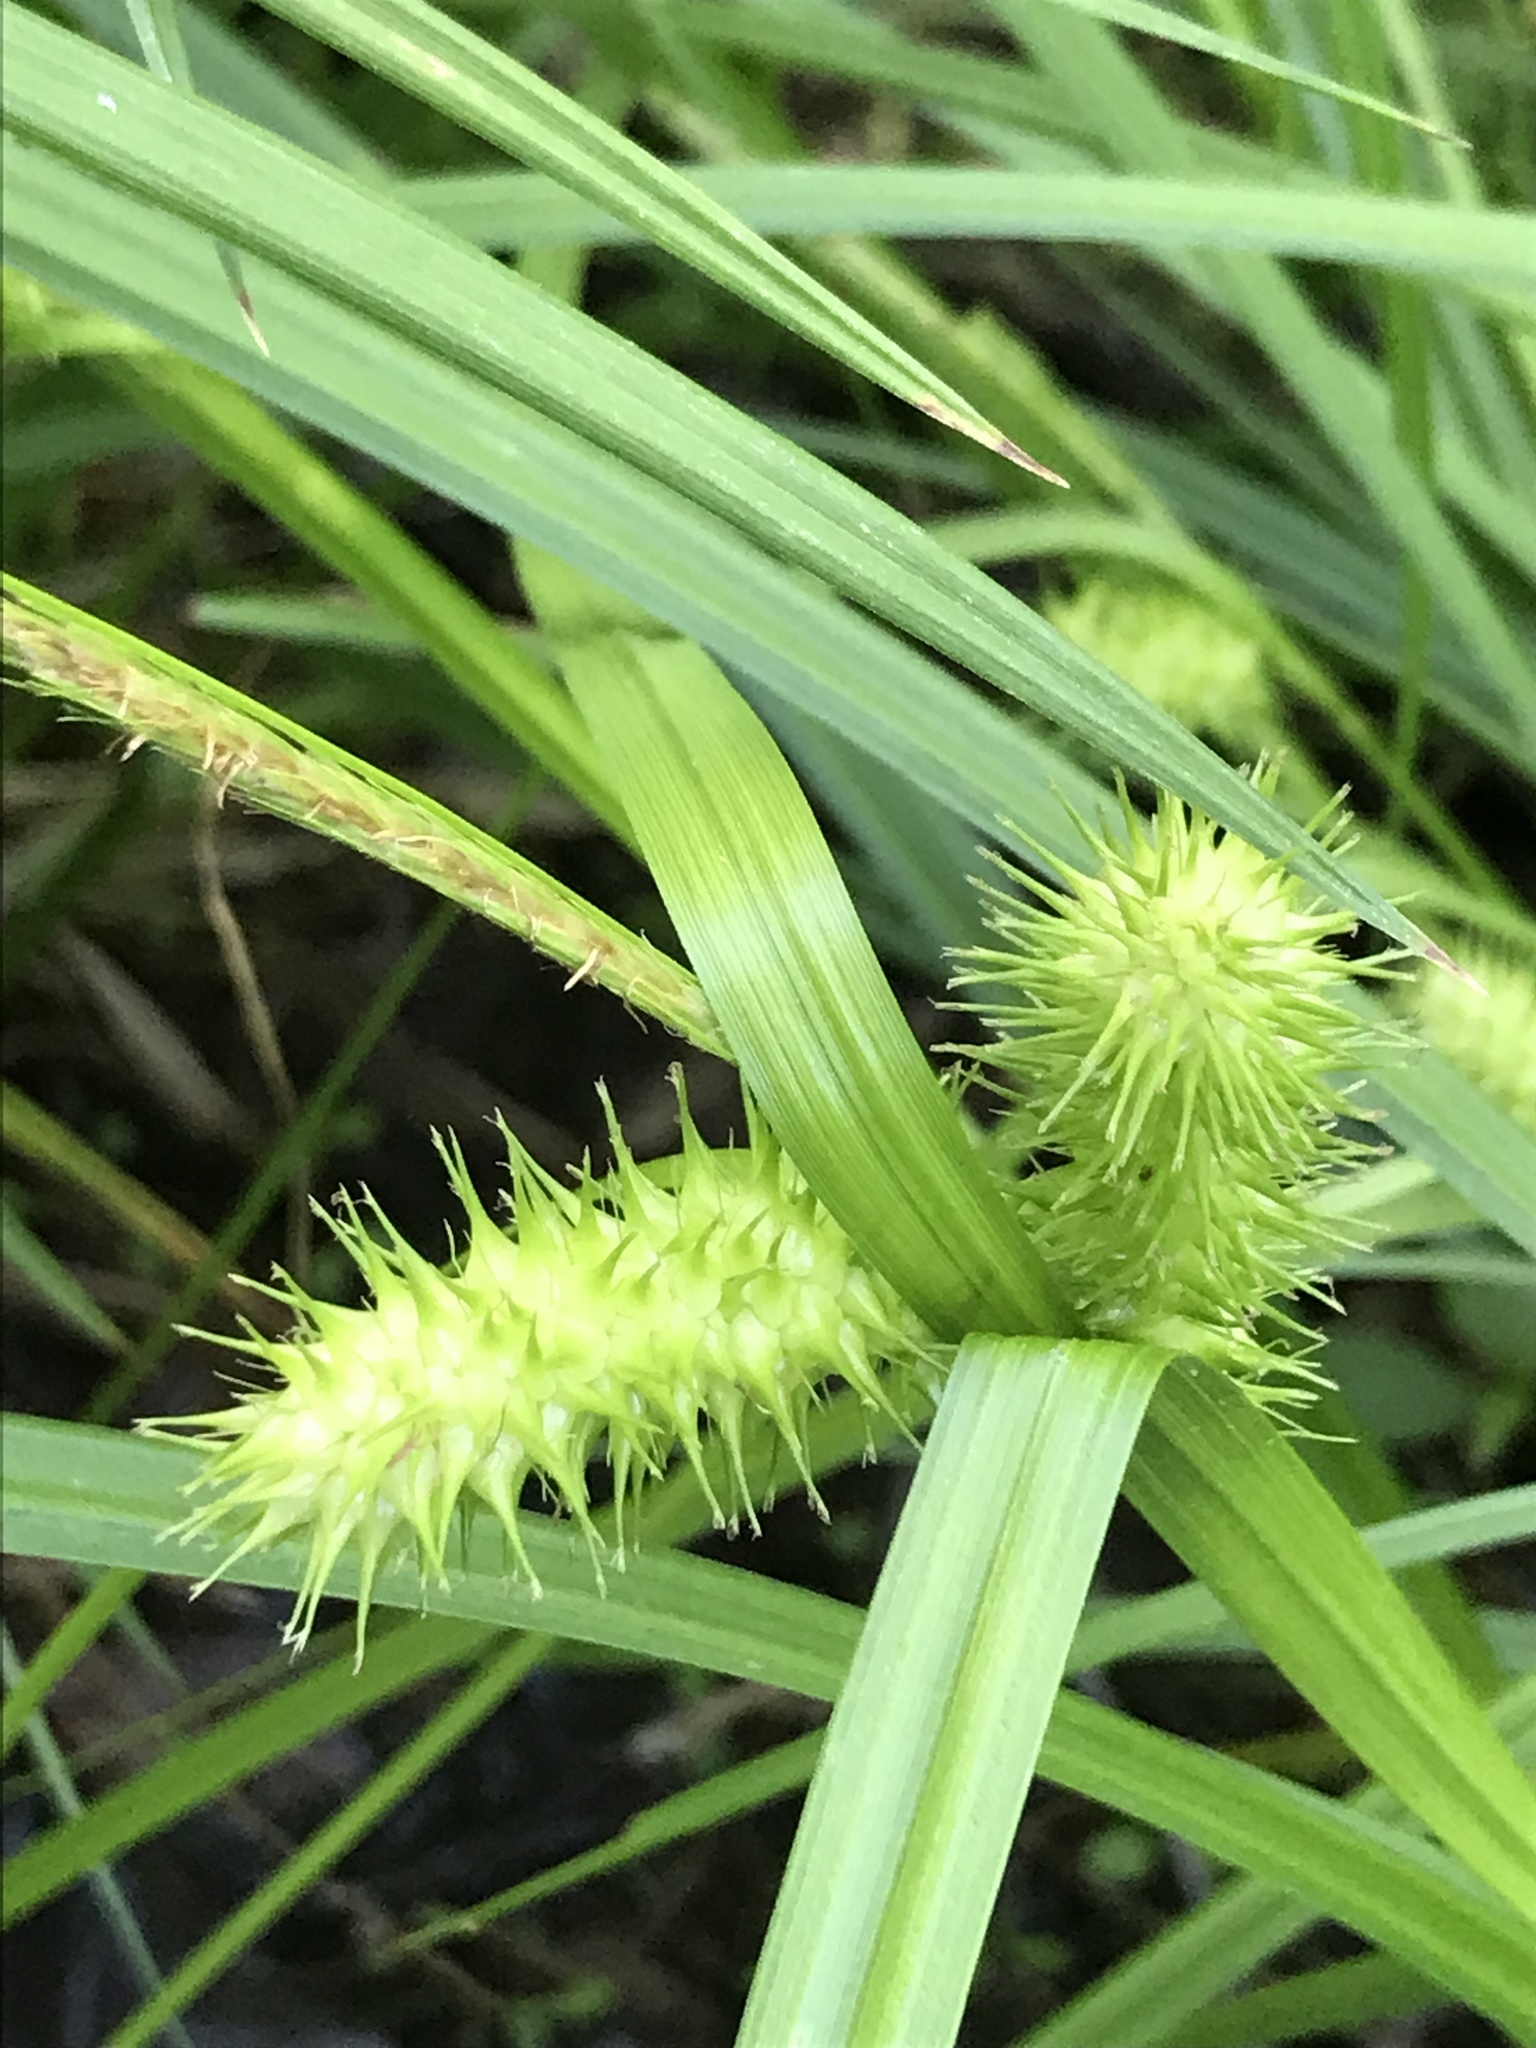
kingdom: Plantae
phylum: Tracheophyta
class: Liliopsida
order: Poales
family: Cyperaceae
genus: Carex
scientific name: Carex lurida
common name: Sallow sedge
